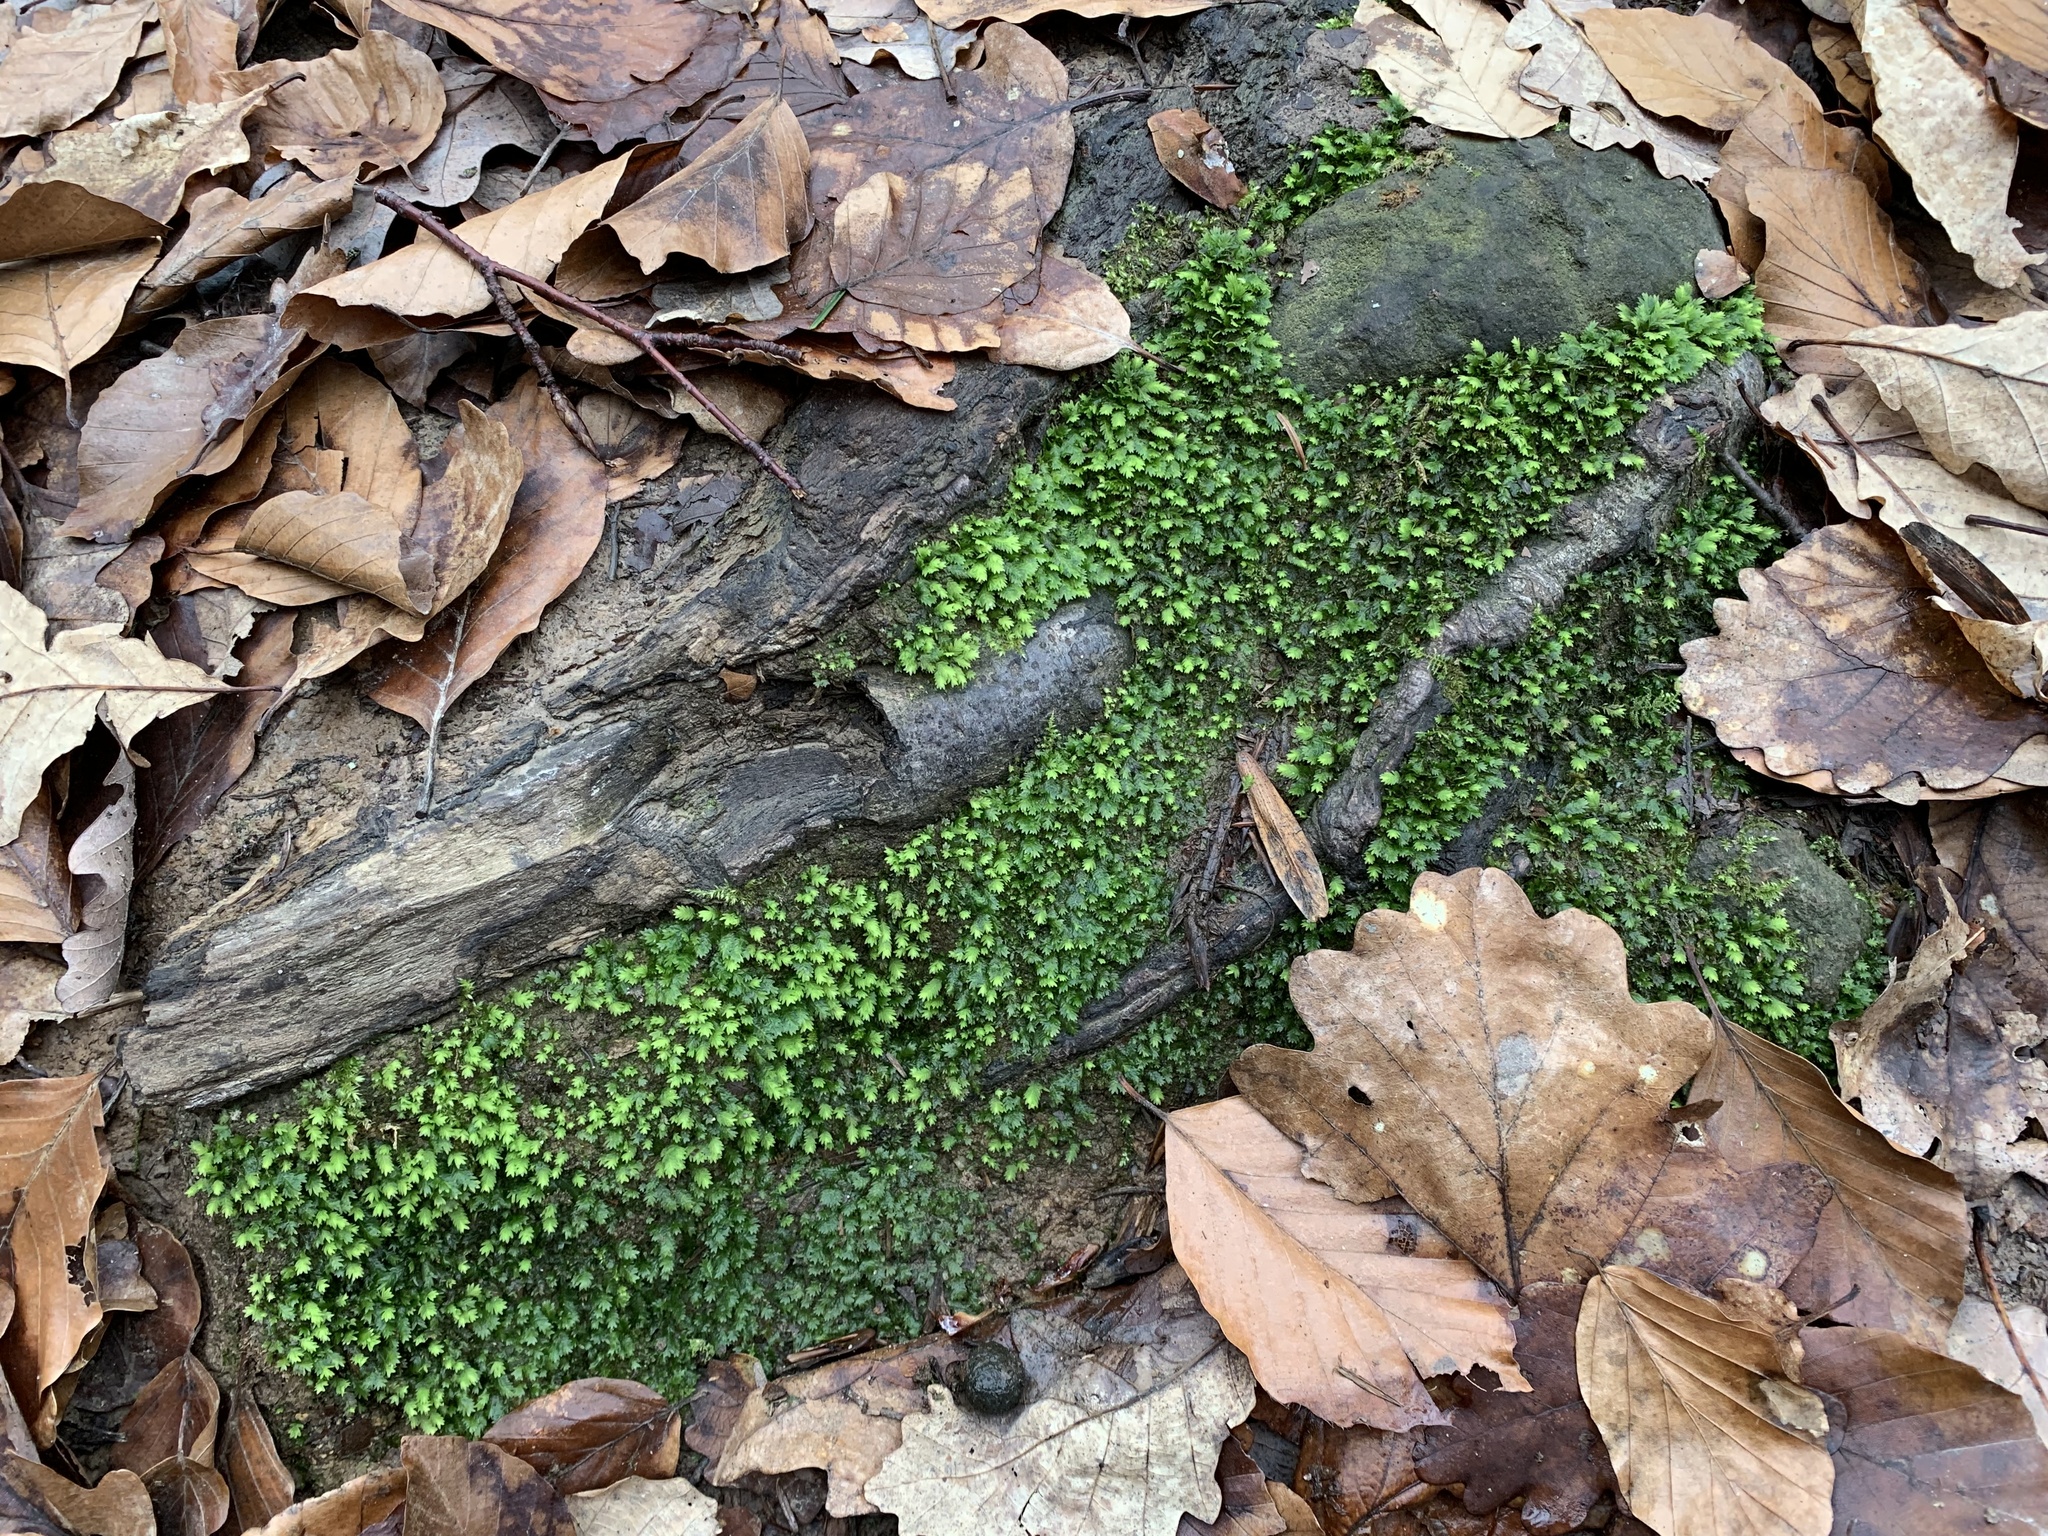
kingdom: Plantae
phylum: Bryophyta
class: Bryopsida
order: Dicranales
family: Fissidentaceae
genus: Fissidens
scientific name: Fissidens taxifolius
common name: Yew-leaved pocket moss
